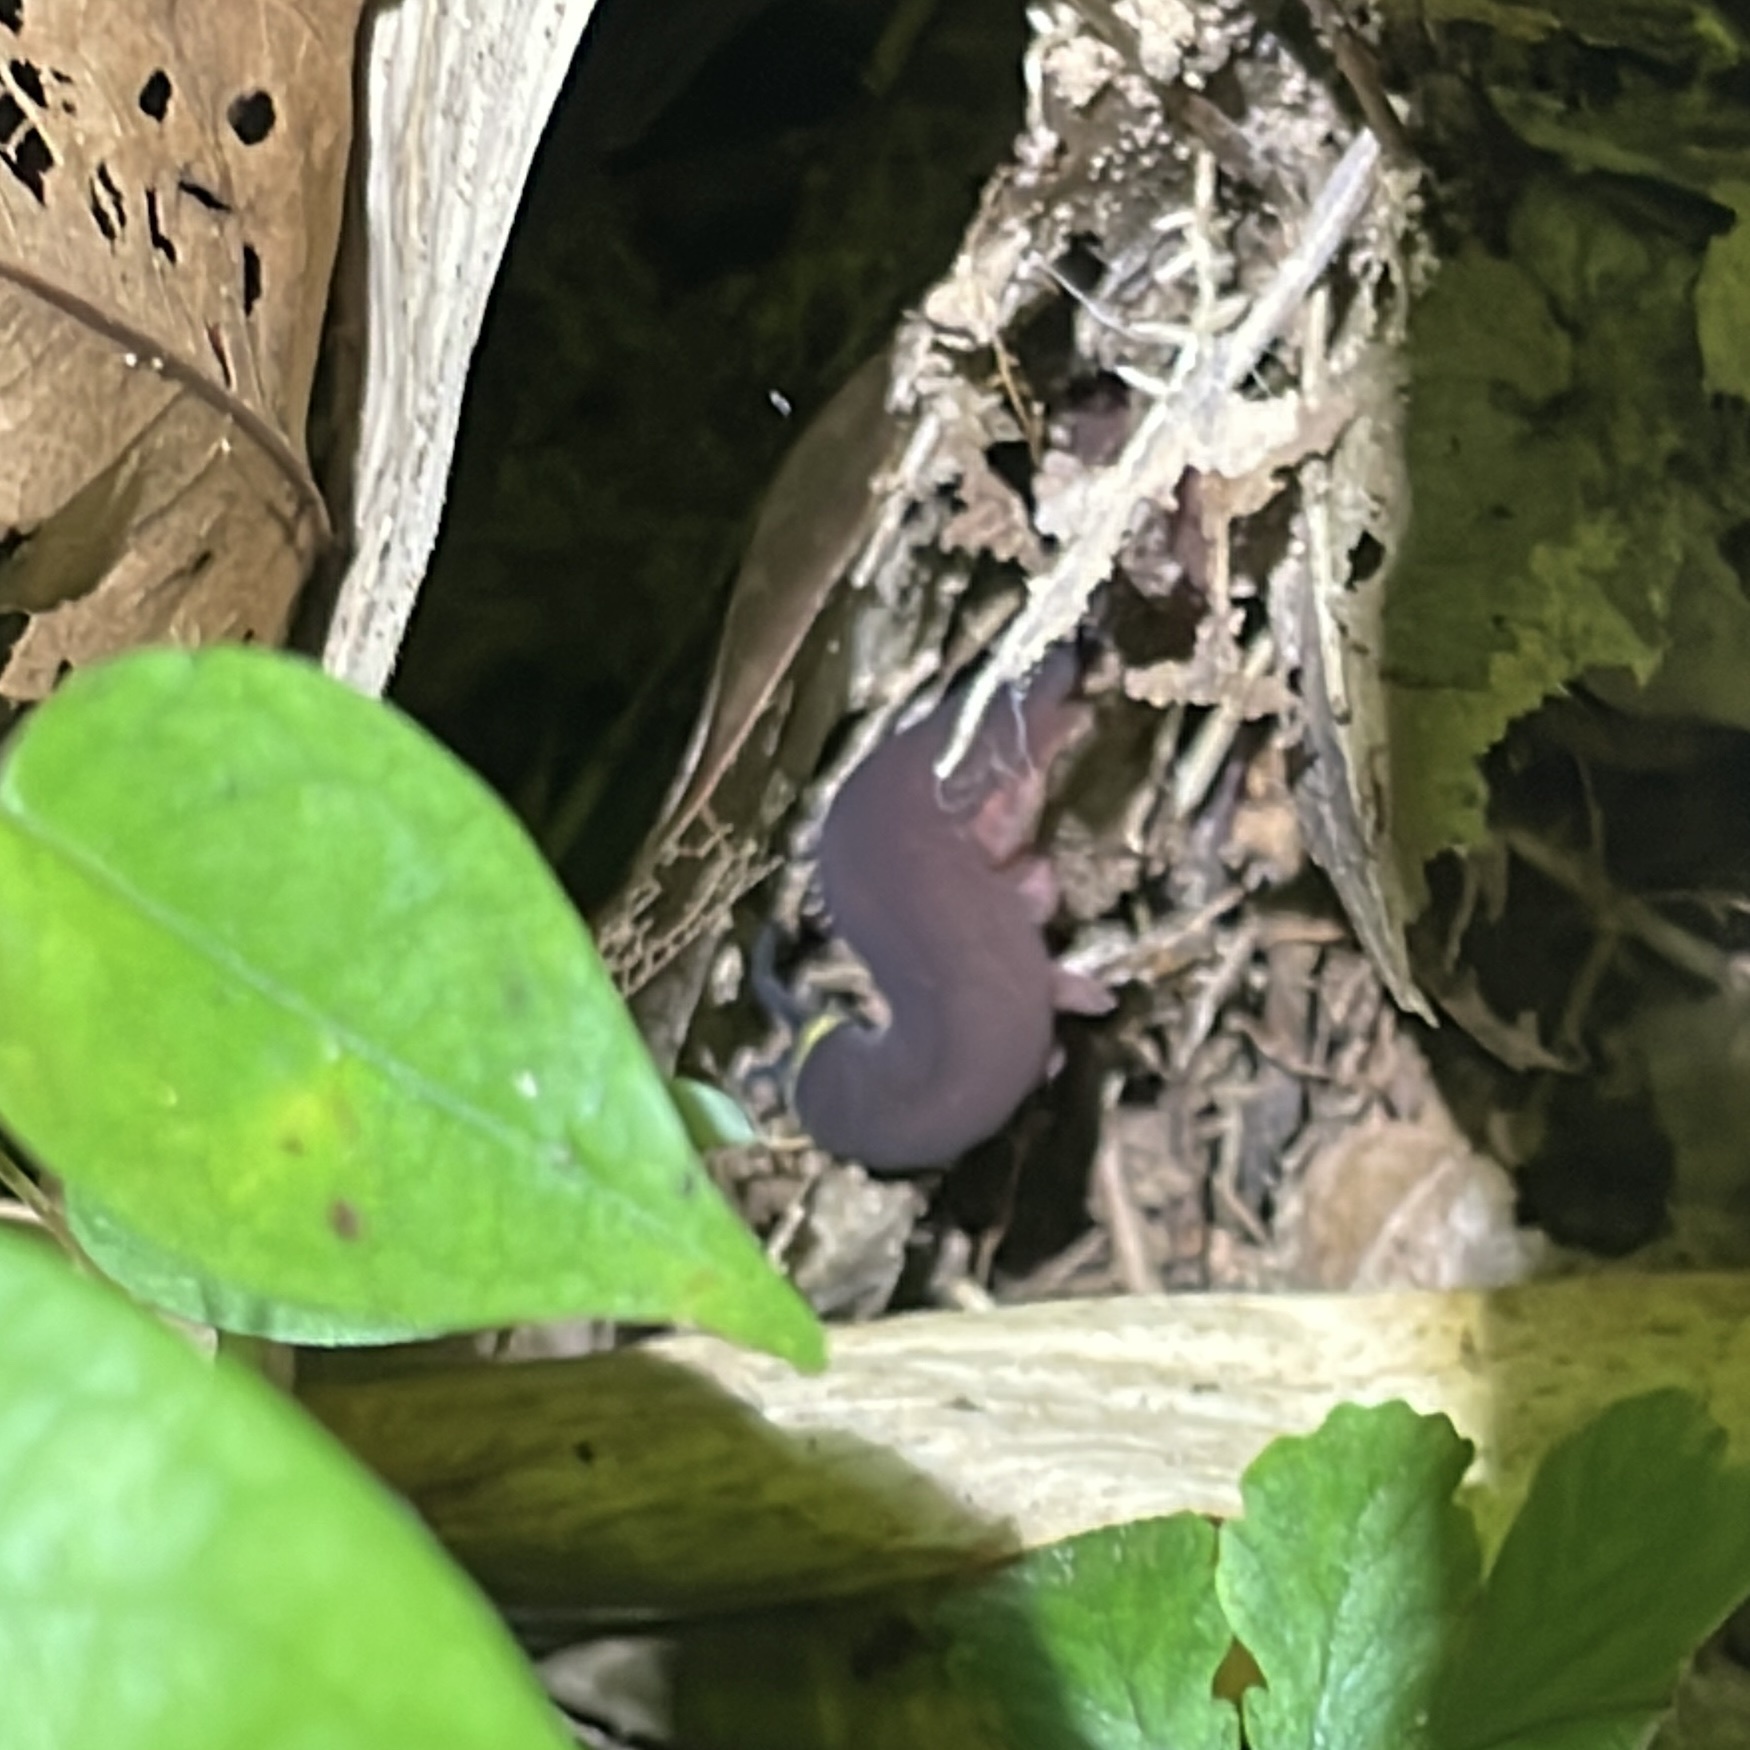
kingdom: Animalia
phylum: Onychophora
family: Peripatidae
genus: Macroperipatus
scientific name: Macroperipatus torquatus
